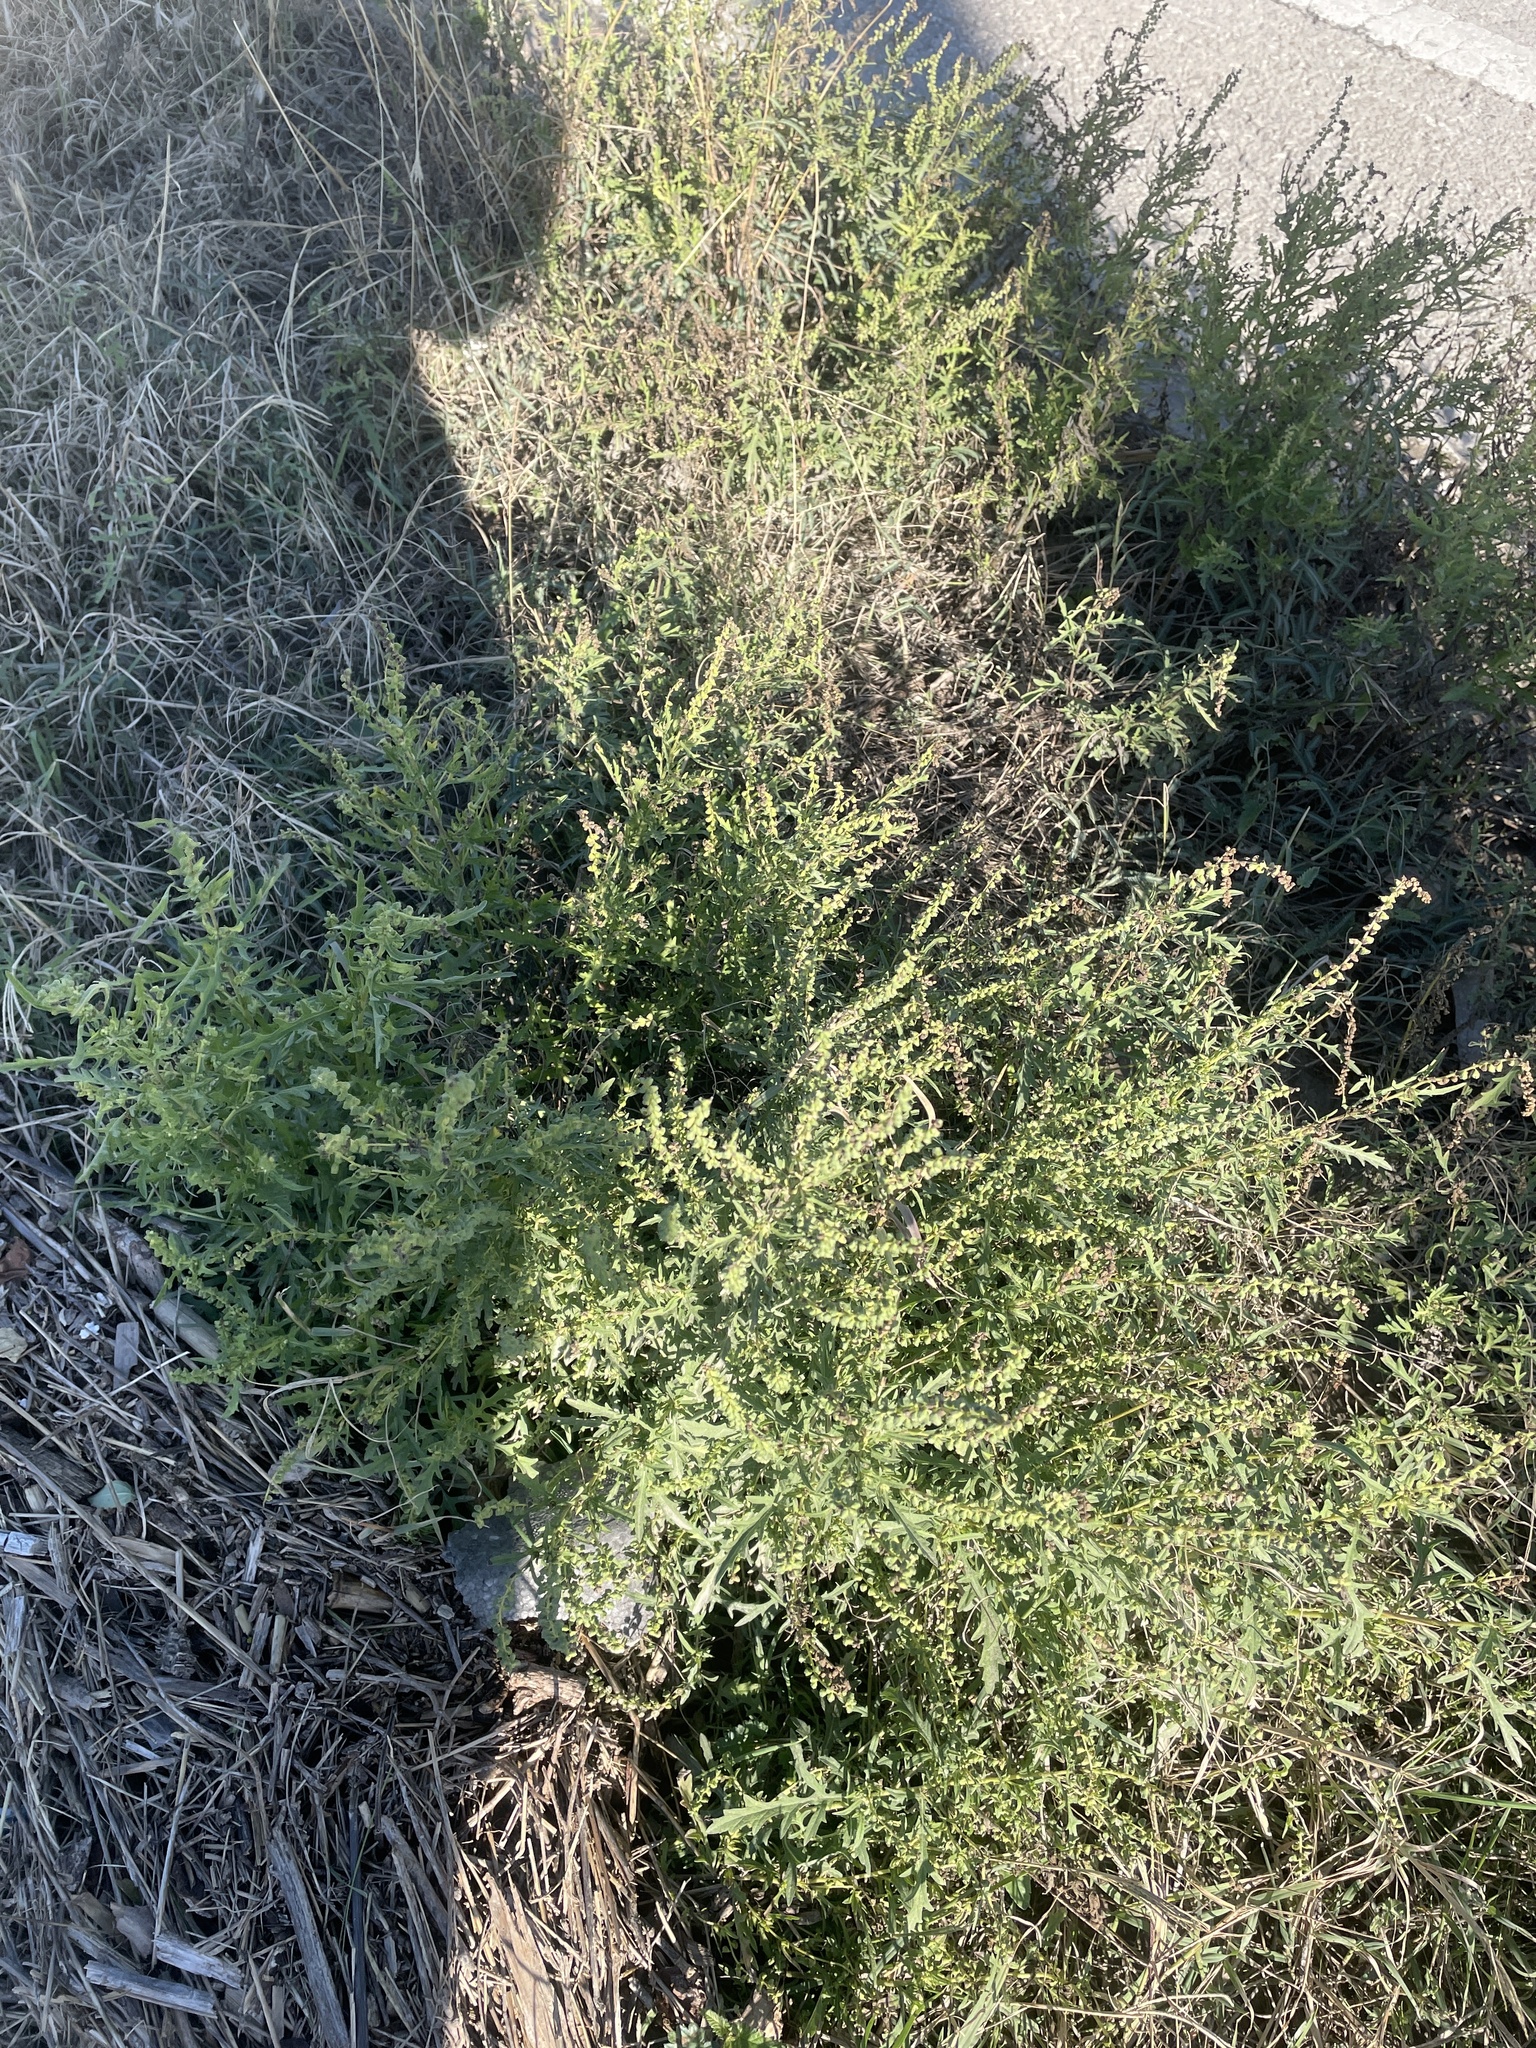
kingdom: Plantae
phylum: Tracheophyta
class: Magnoliopsida
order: Asterales
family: Asteraceae
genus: Ambrosia
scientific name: Ambrosia psilostachya
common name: Perennial ragweed
